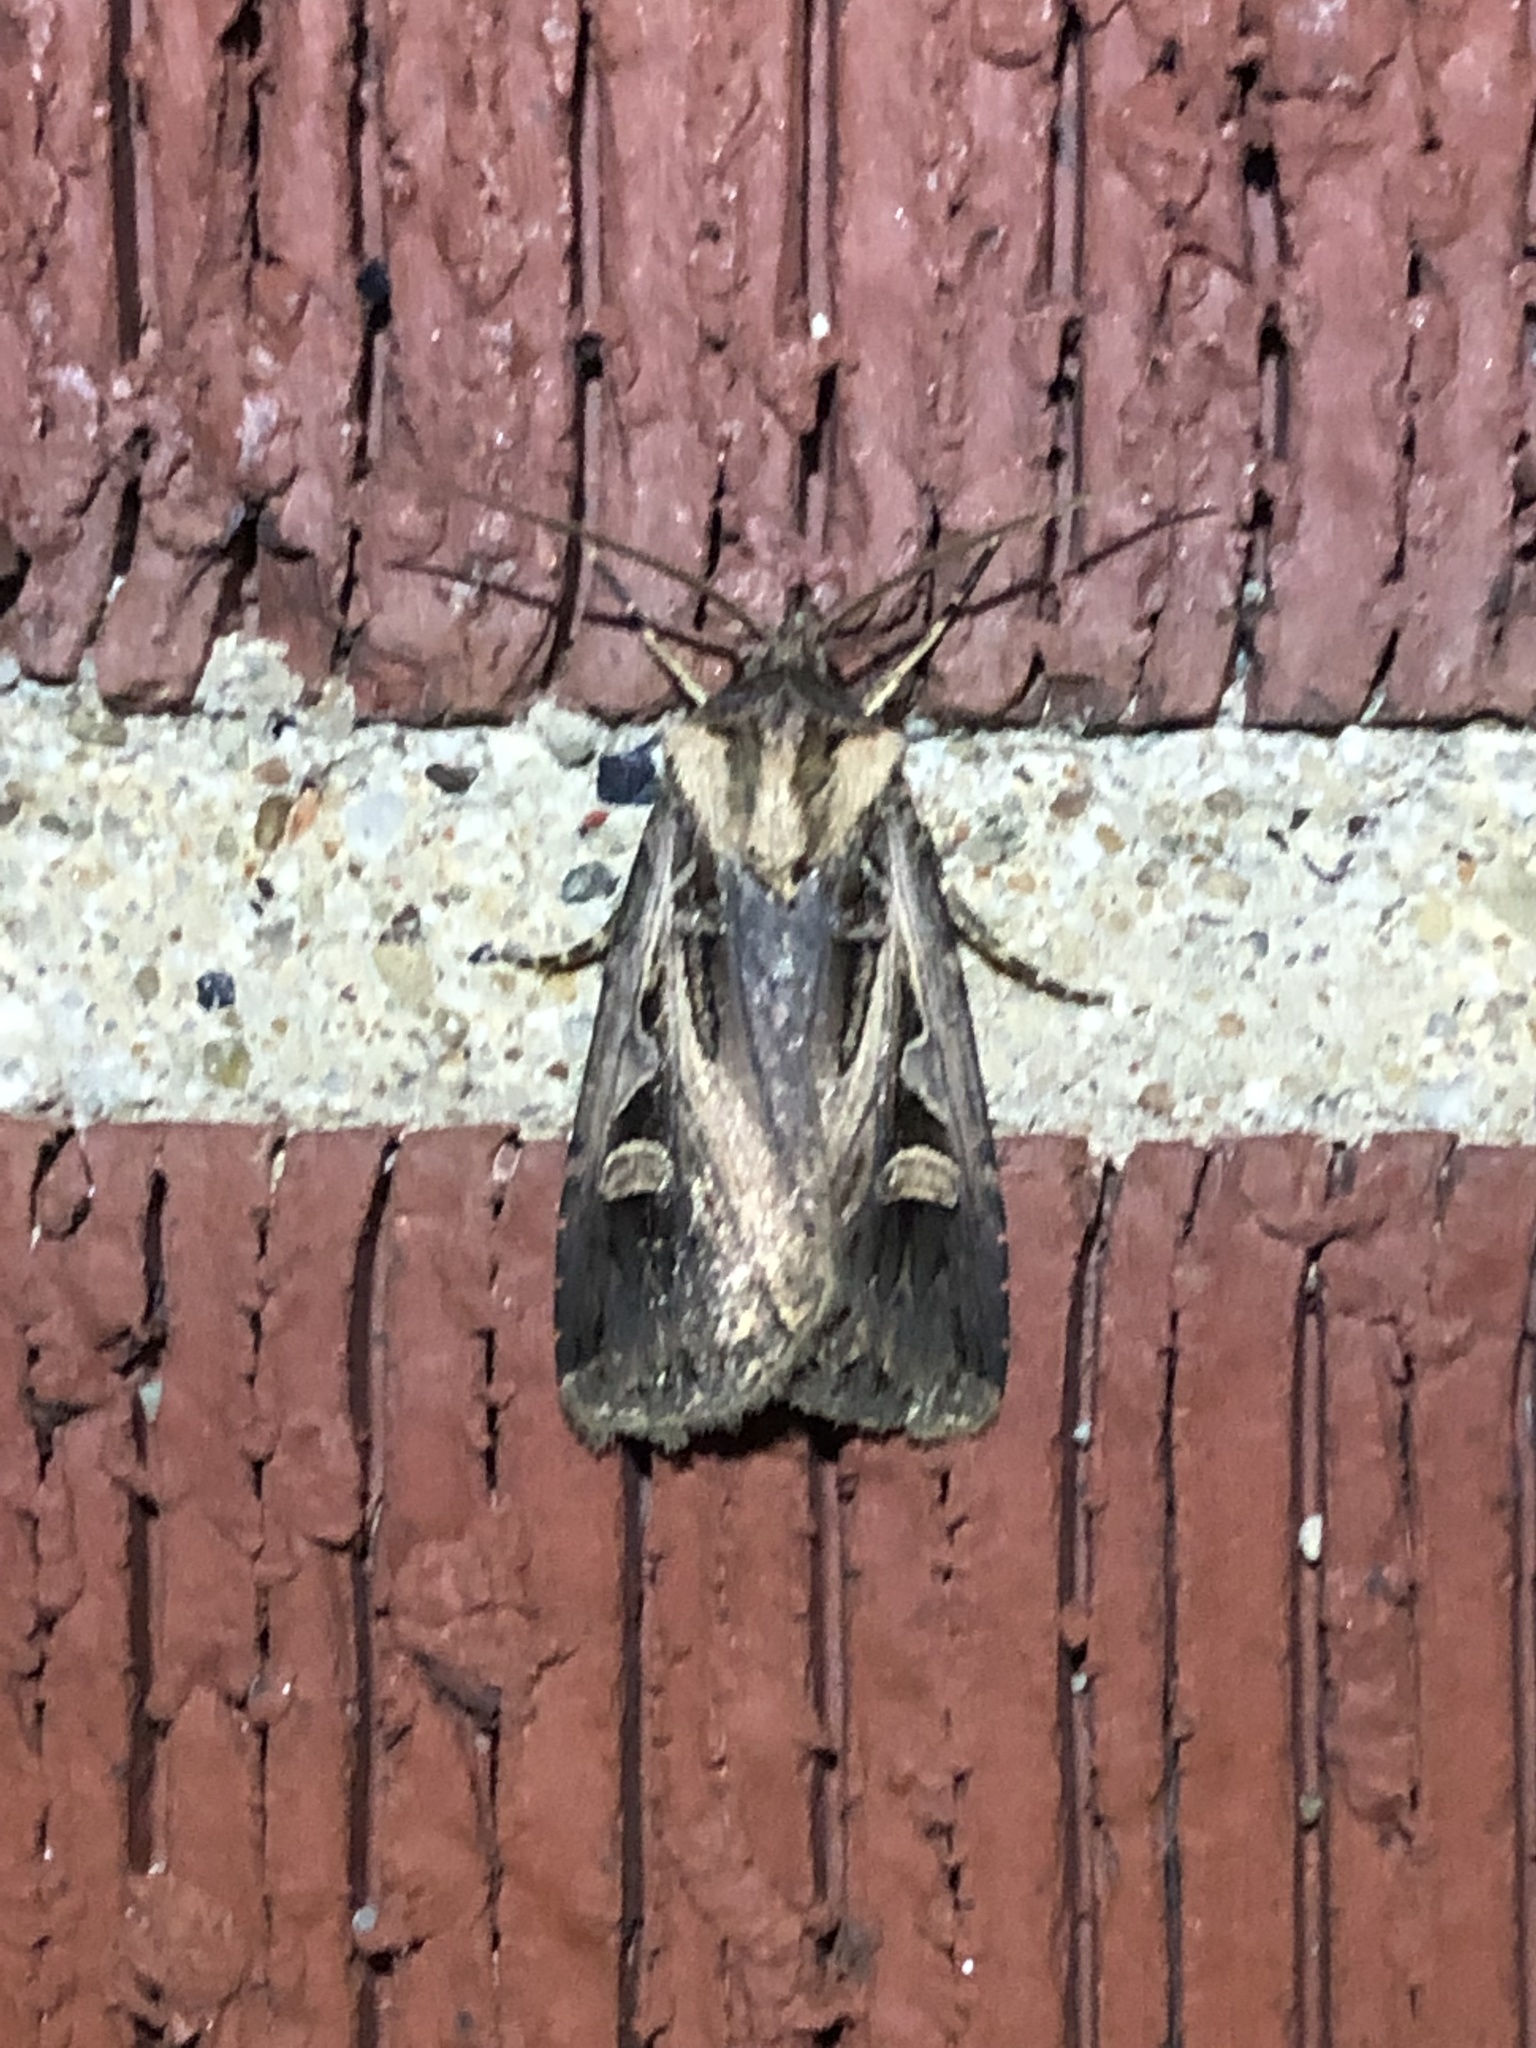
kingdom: Animalia
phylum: Arthropoda
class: Insecta
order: Lepidoptera
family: Noctuidae
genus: Feltia
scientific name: Feltia herilis
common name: Master's dart
